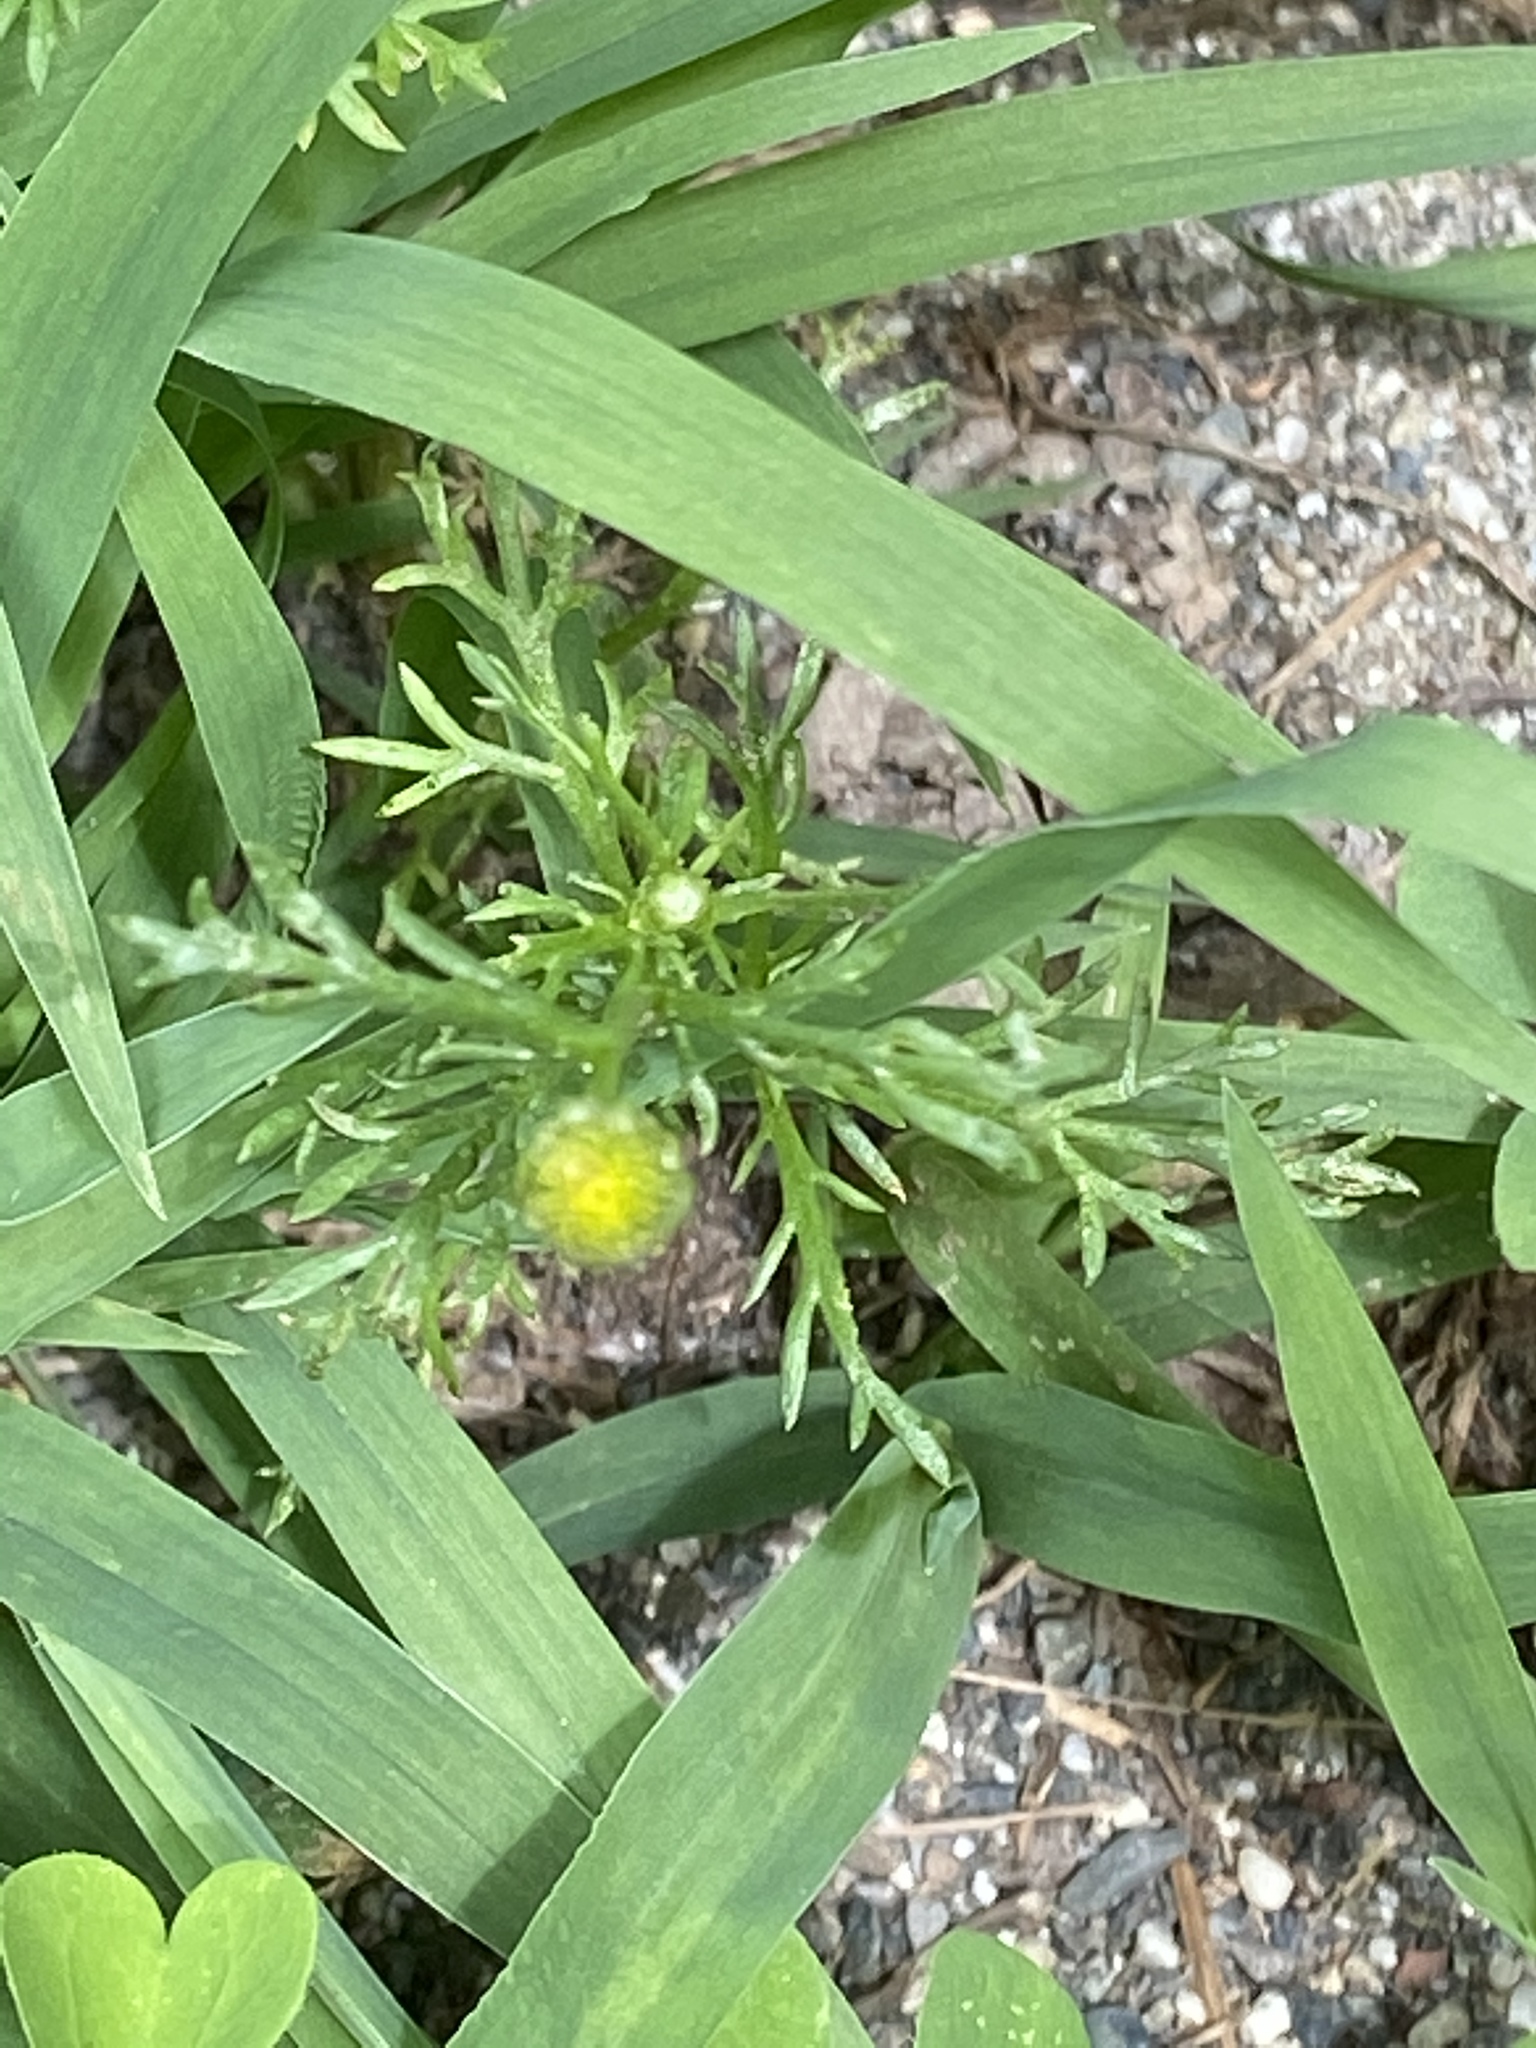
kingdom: Plantae
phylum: Tracheophyta
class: Magnoliopsida
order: Asterales
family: Asteraceae
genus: Matricaria
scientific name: Matricaria discoidea
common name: Disc mayweed
